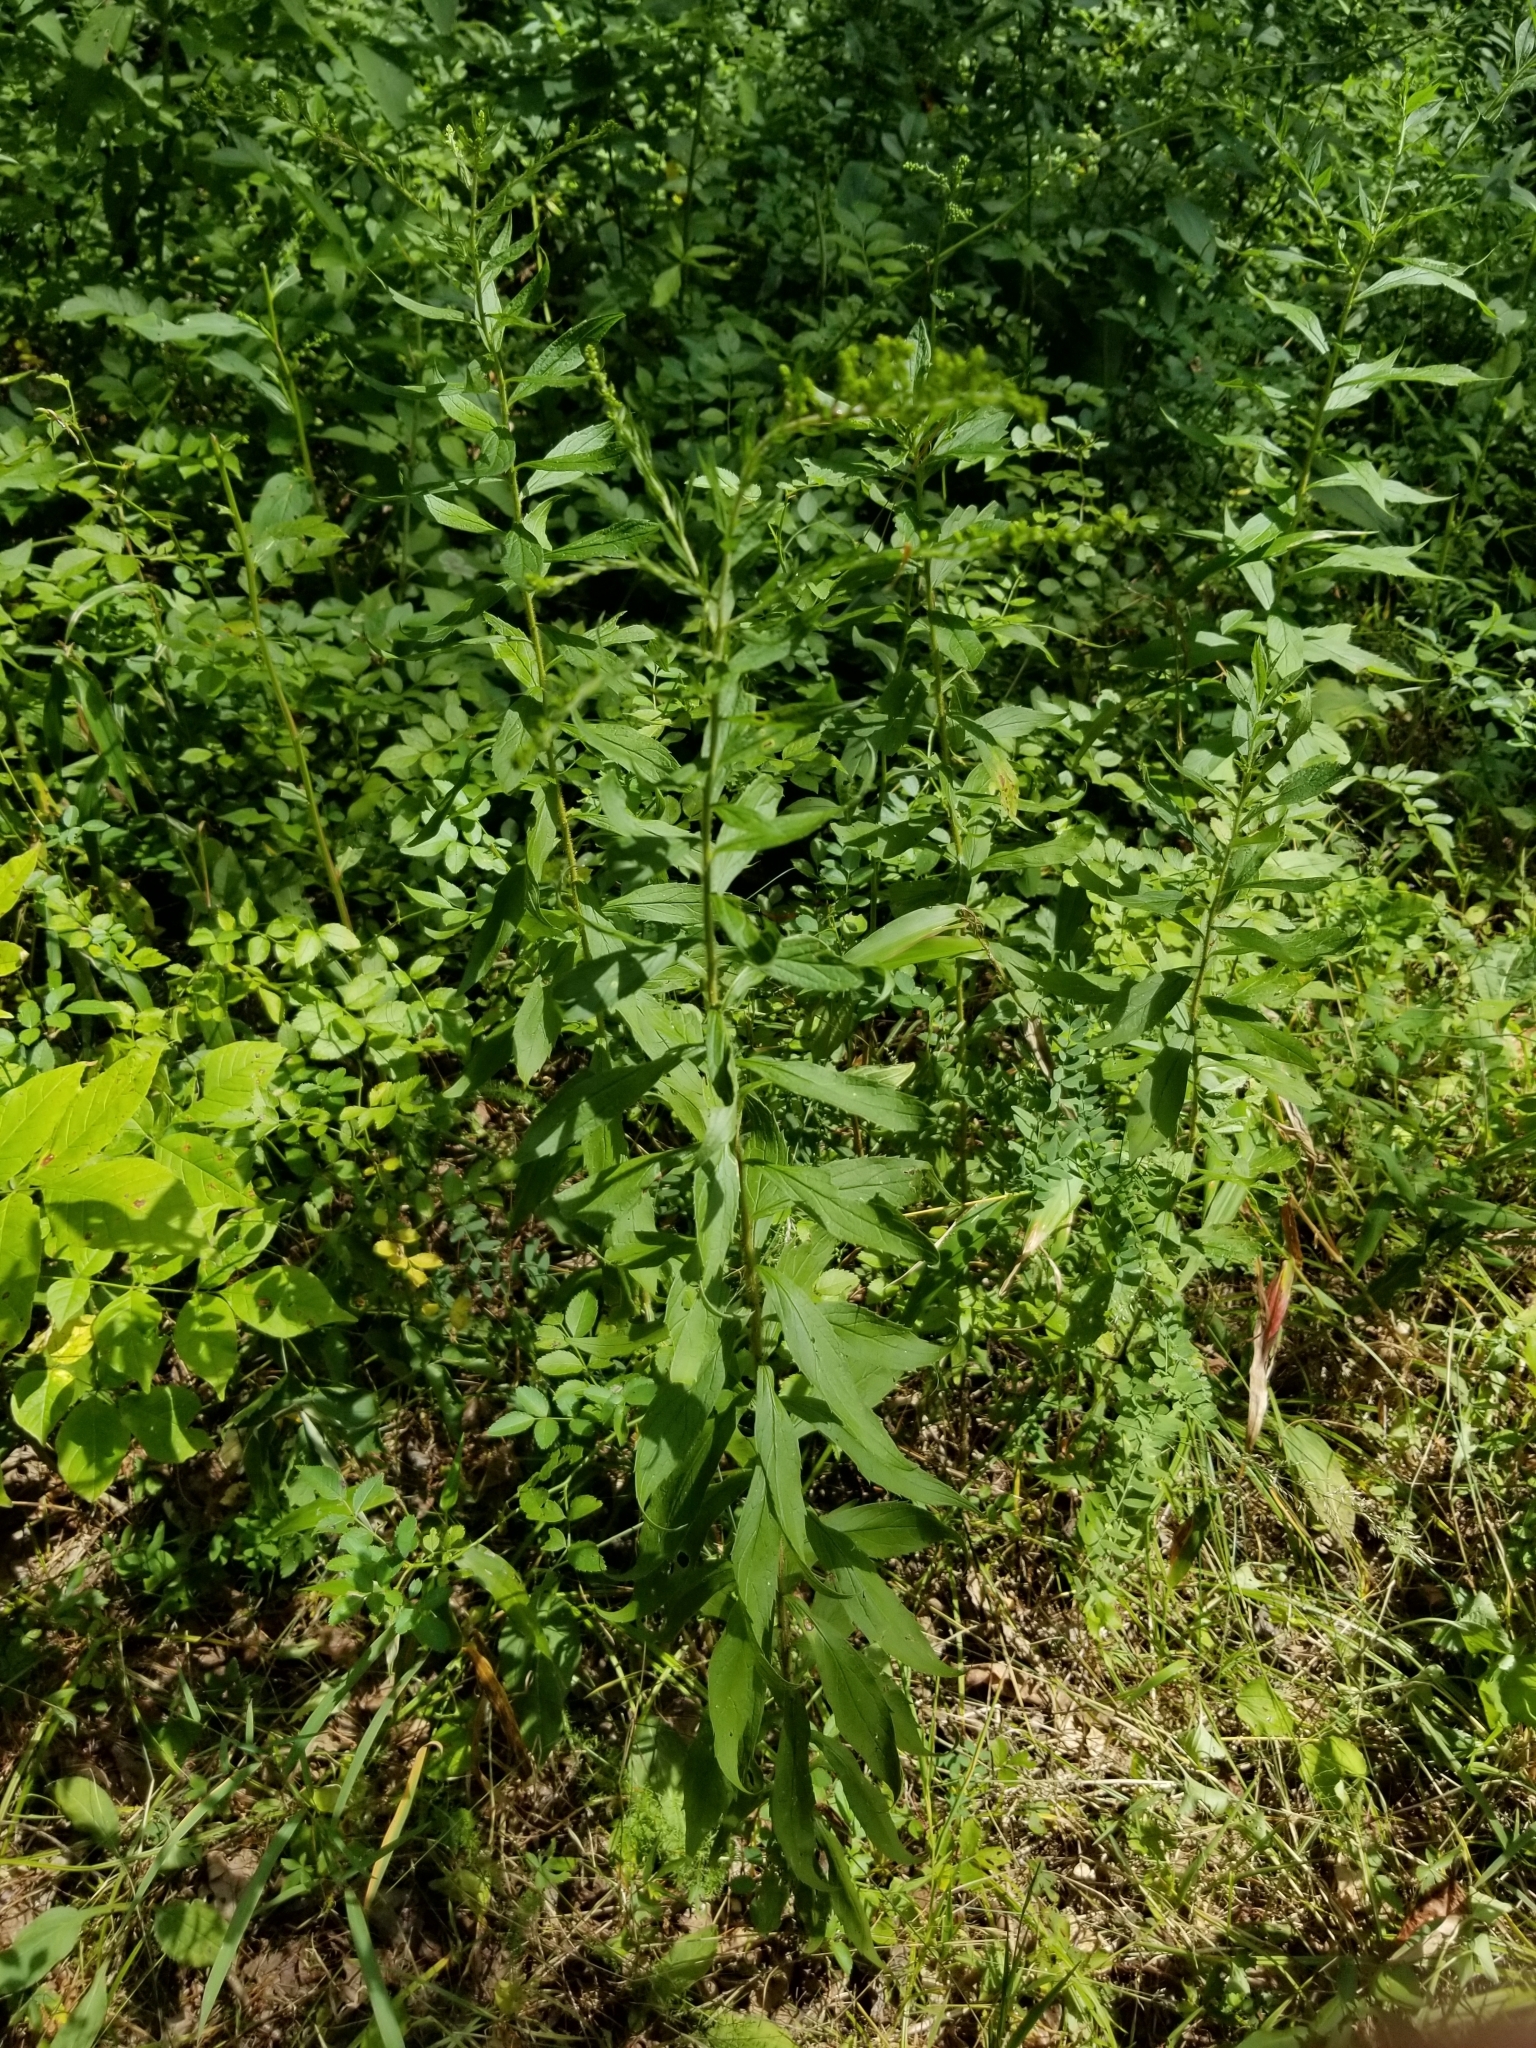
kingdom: Plantae
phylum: Tracheophyta
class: Magnoliopsida
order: Asterales
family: Asteraceae
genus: Solidago
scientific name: Solidago rugosa
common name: Rough-stemmed goldenrod
